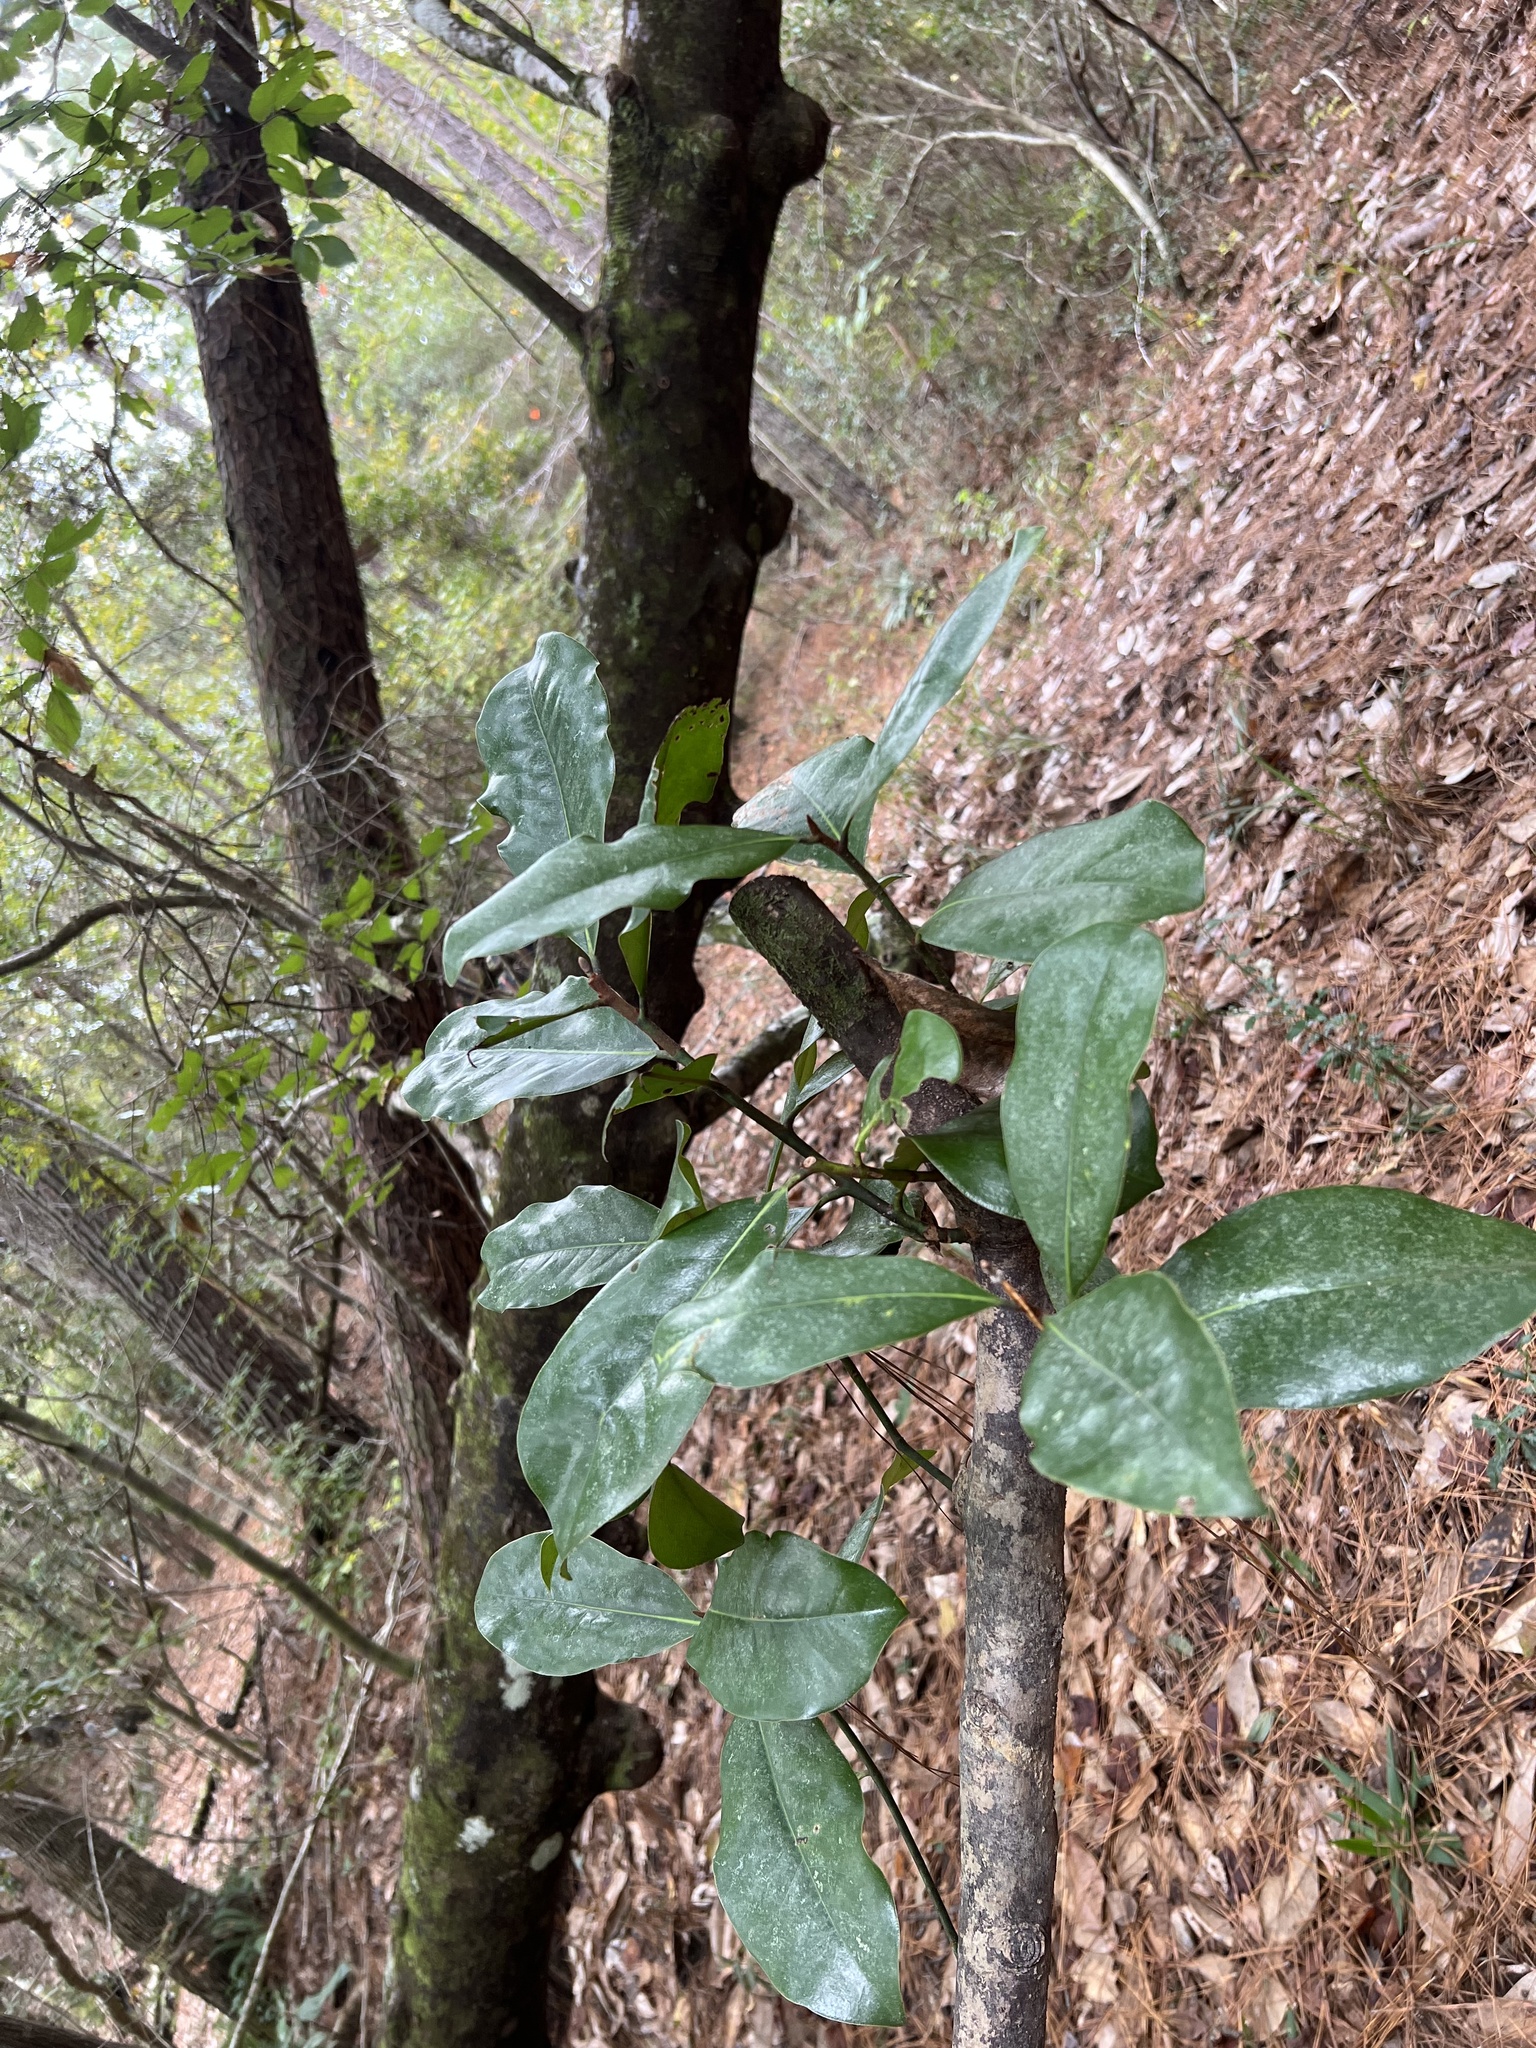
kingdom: Plantae
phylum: Tracheophyta
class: Magnoliopsida
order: Magnoliales
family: Magnoliaceae
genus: Magnolia
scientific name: Magnolia grandiflora
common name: Southern magnolia
